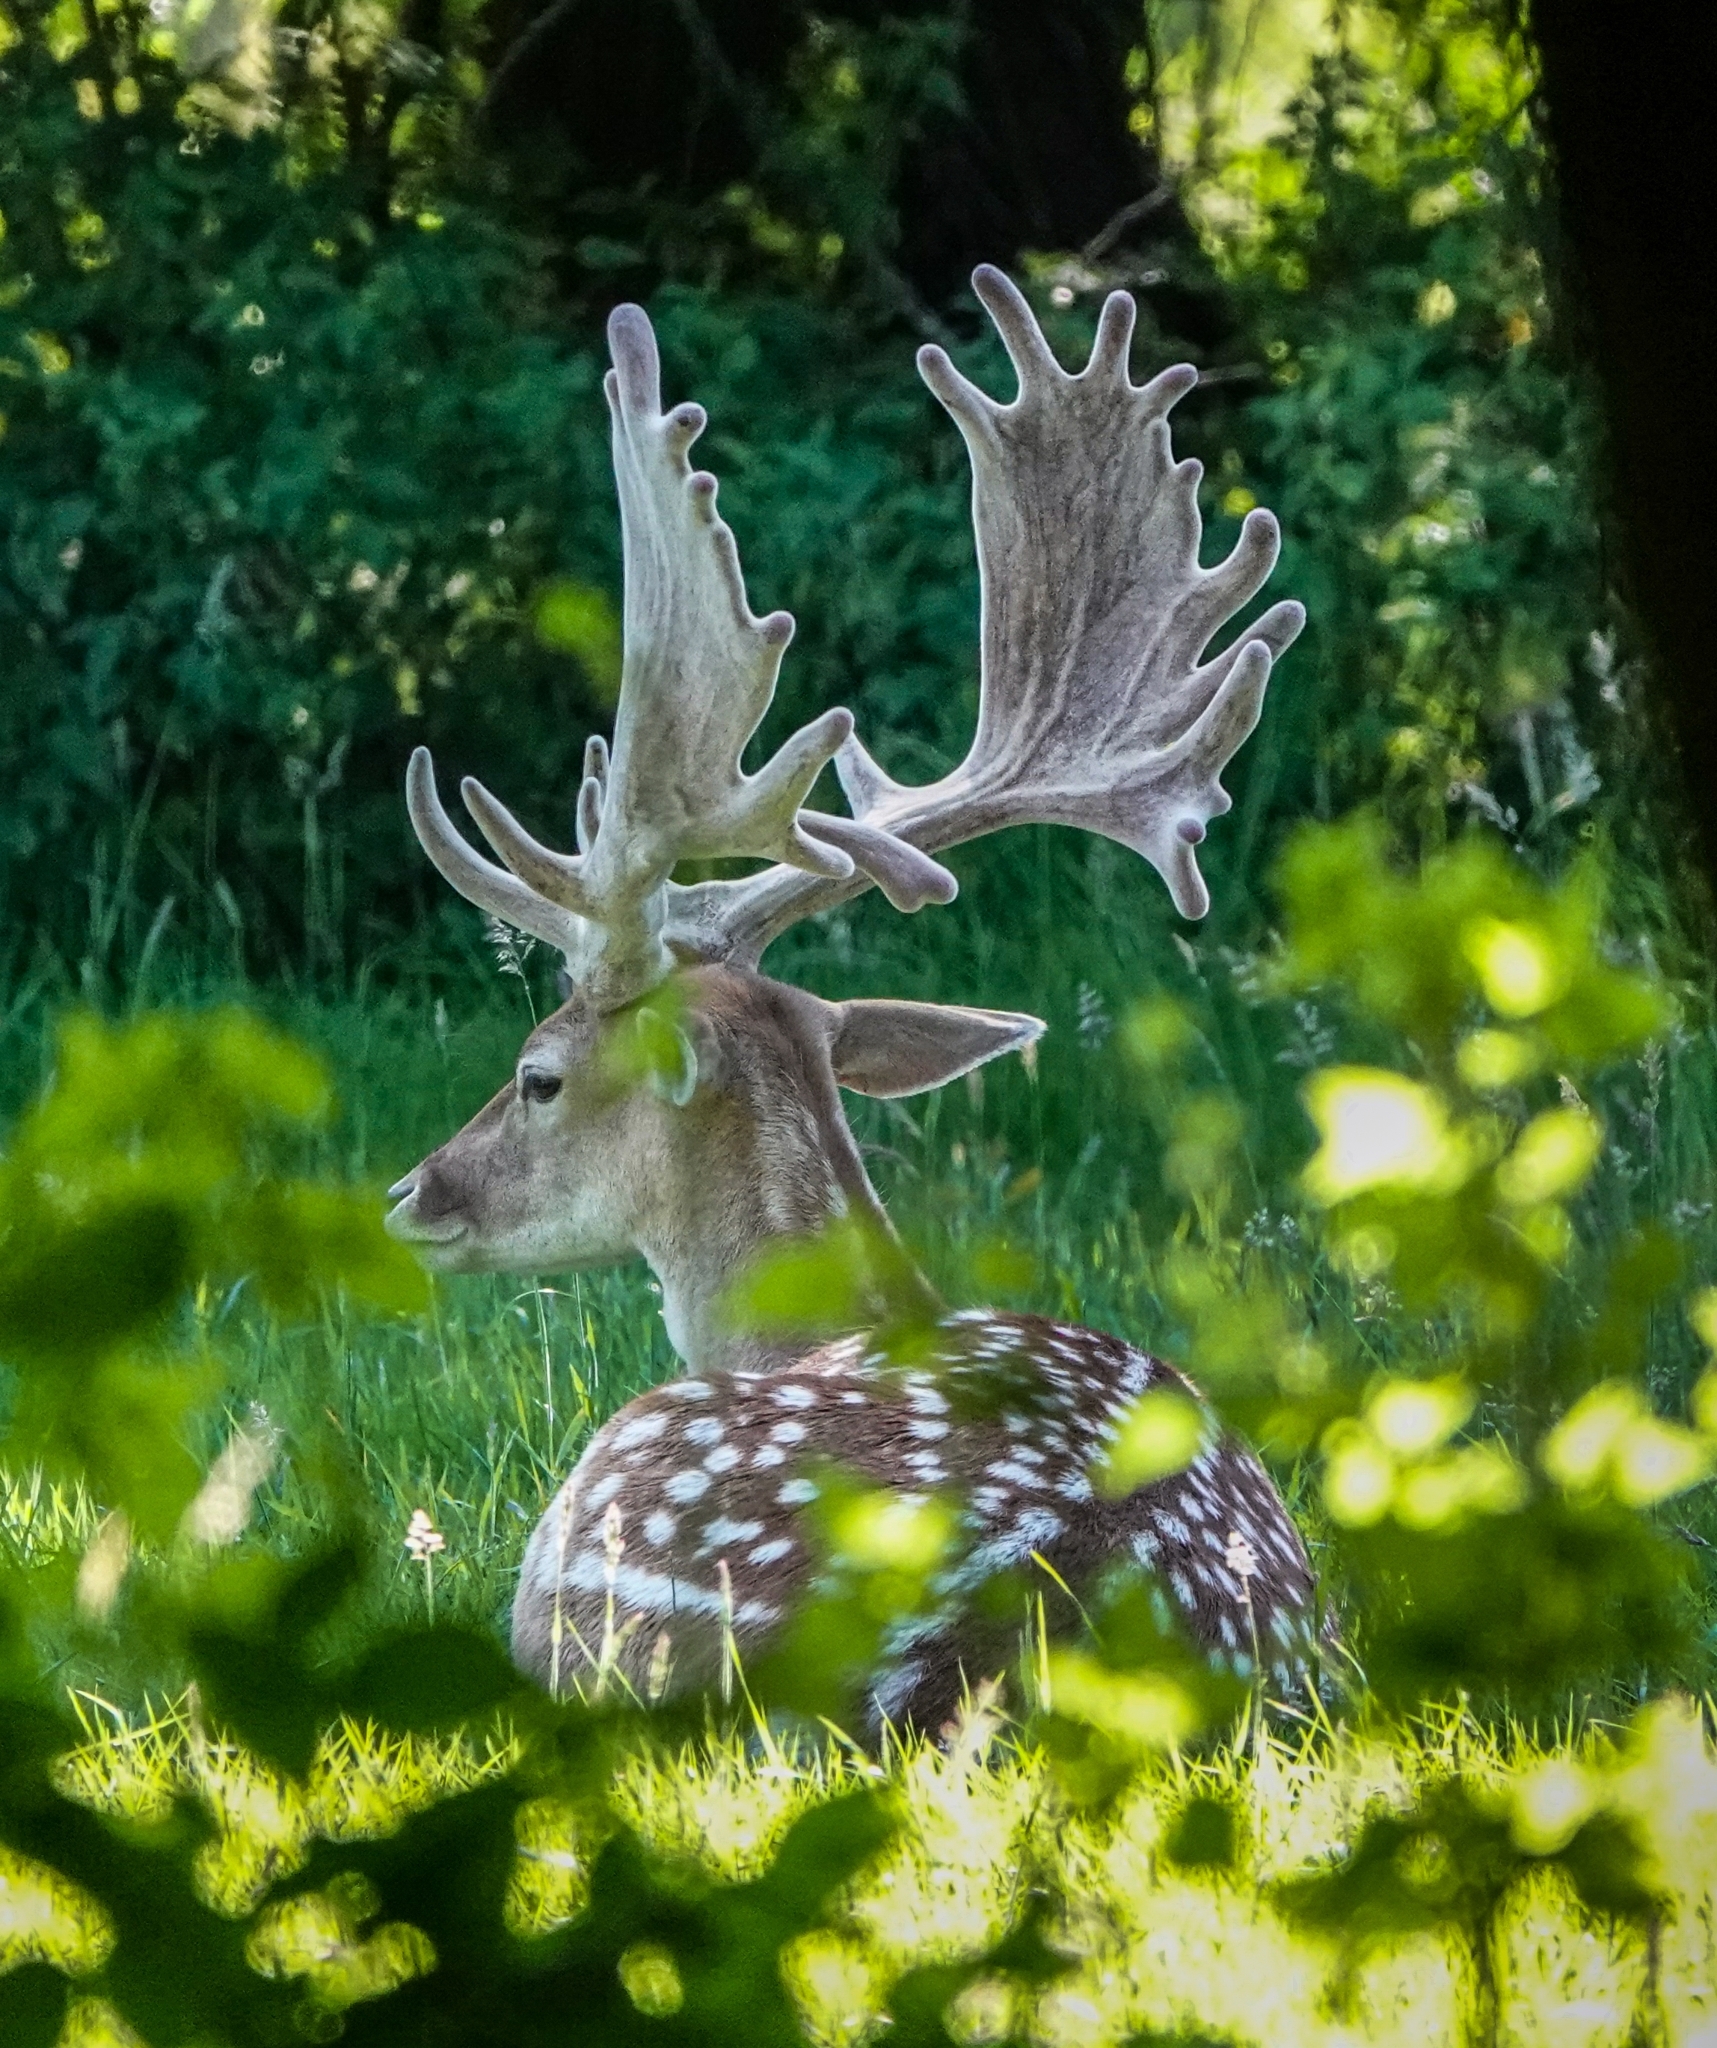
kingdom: Animalia
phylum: Chordata
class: Mammalia
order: Artiodactyla
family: Cervidae
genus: Dama
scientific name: Dama dama
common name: Fallow deer
